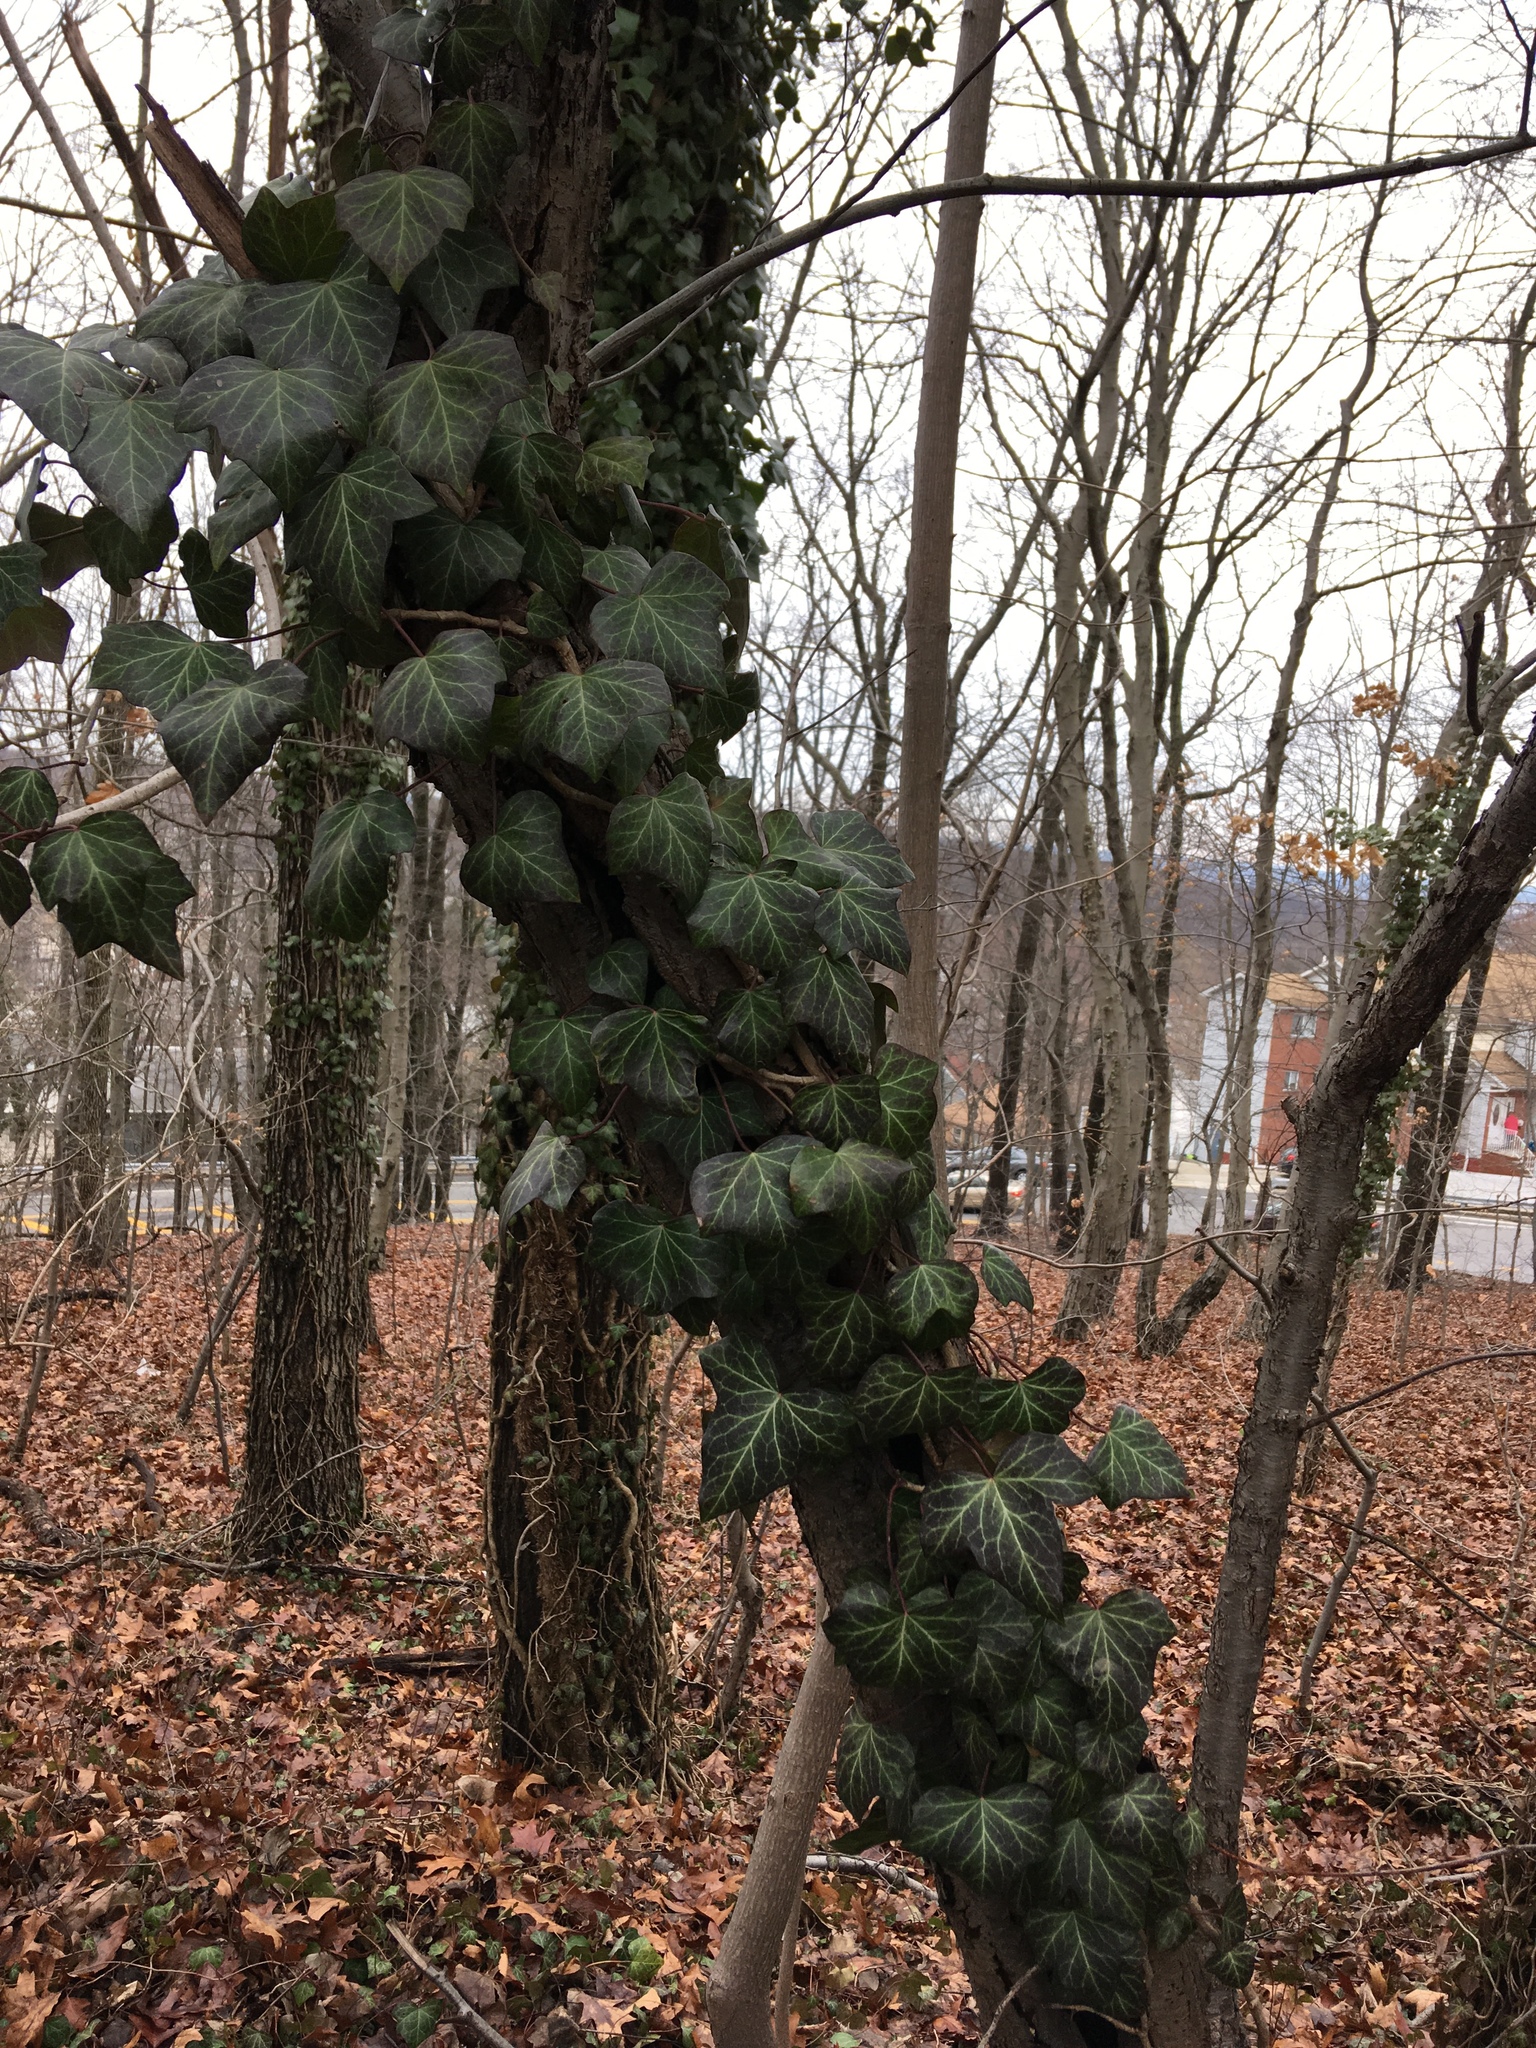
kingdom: Plantae
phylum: Tracheophyta
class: Magnoliopsida
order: Apiales
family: Araliaceae
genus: Hedera
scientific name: Hedera helix
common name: Ivy
